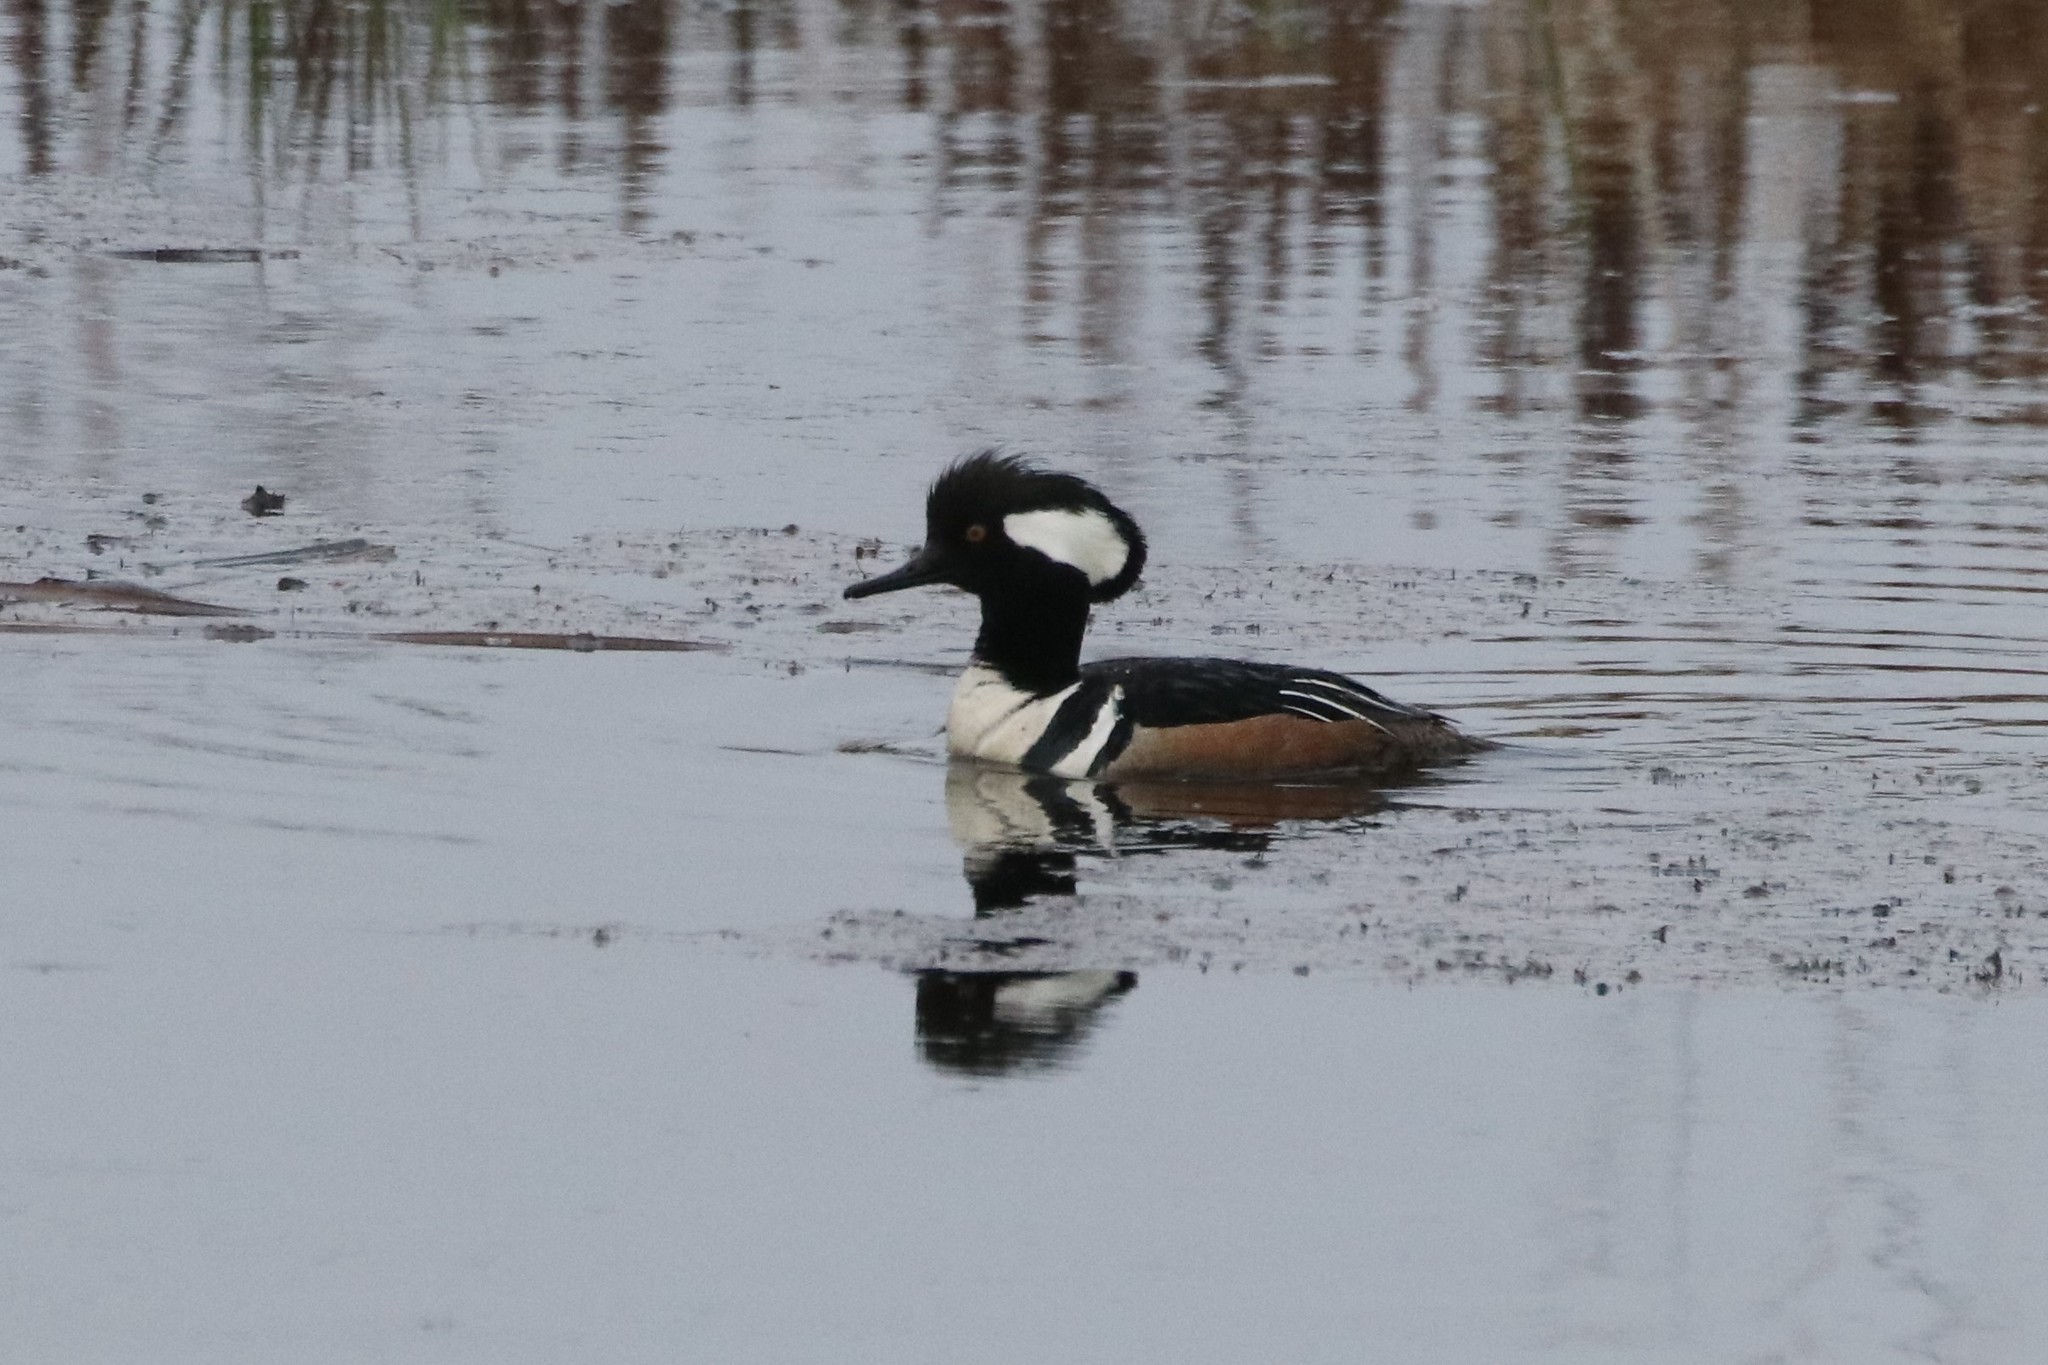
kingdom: Animalia
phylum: Chordata
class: Aves
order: Anseriformes
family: Anatidae
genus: Lophodytes
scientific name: Lophodytes cucullatus
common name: Hooded merganser
